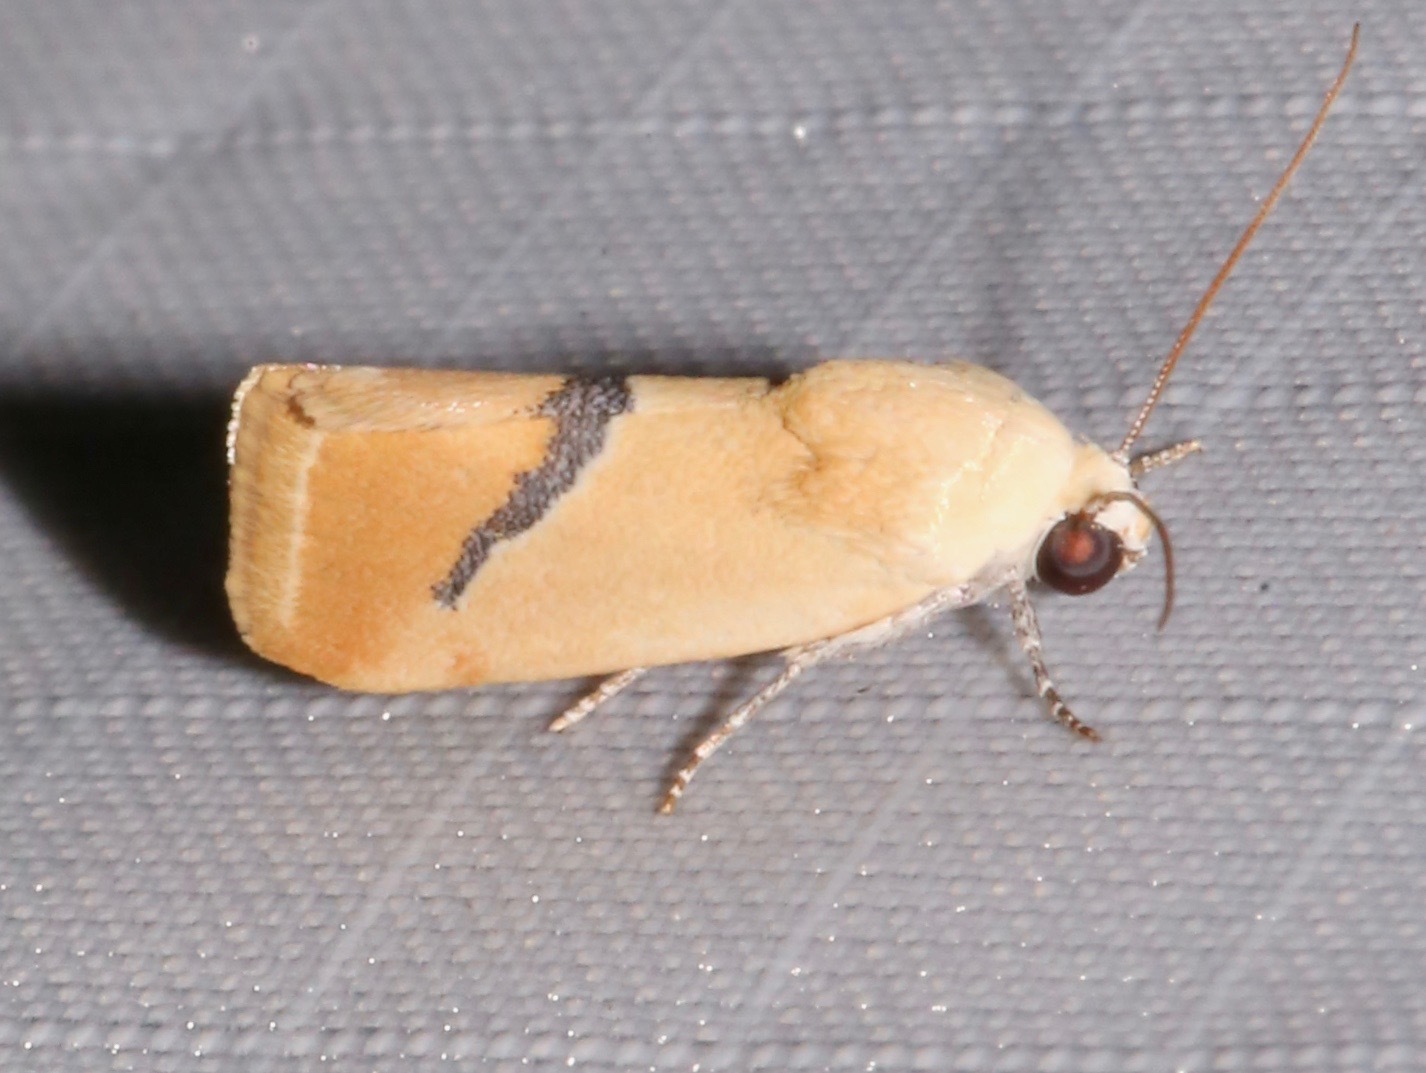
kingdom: Animalia
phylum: Arthropoda
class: Insecta
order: Lepidoptera
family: Noctuidae
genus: Ponometia
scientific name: Ponometia venustula
